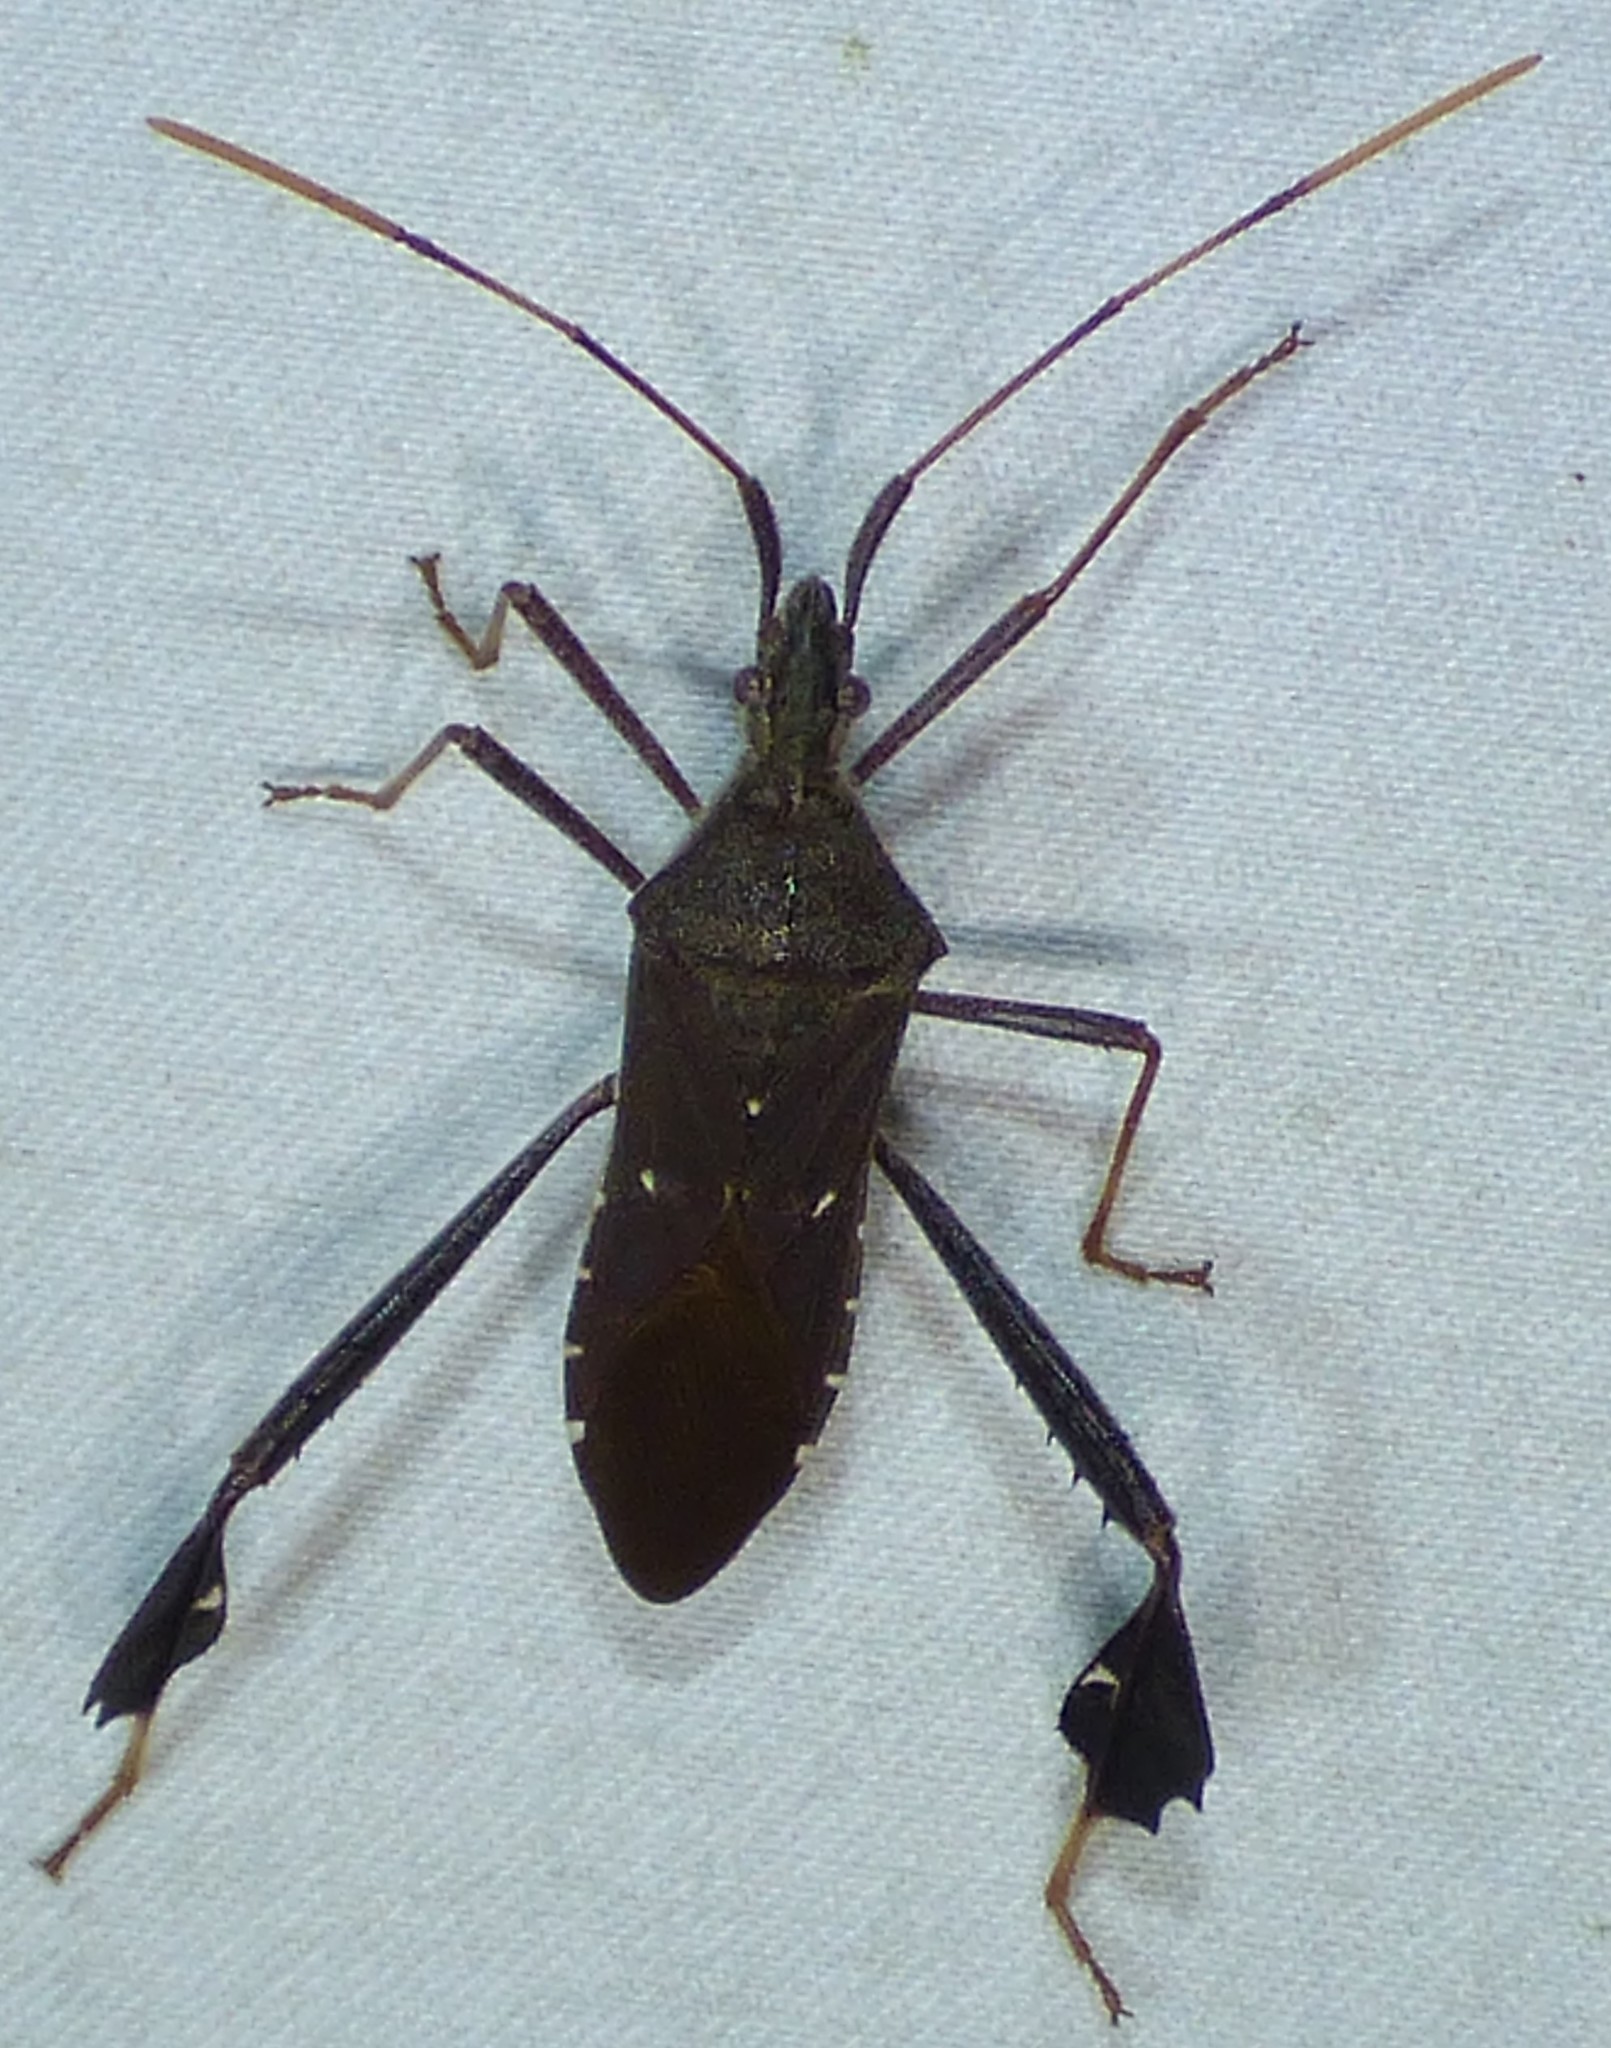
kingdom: Animalia
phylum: Arthropoda
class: Insecta
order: Hemiptera
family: Coreidae
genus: Leptoglossus
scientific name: Leptoglossus oppositus
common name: Northern leaf-footed bug
